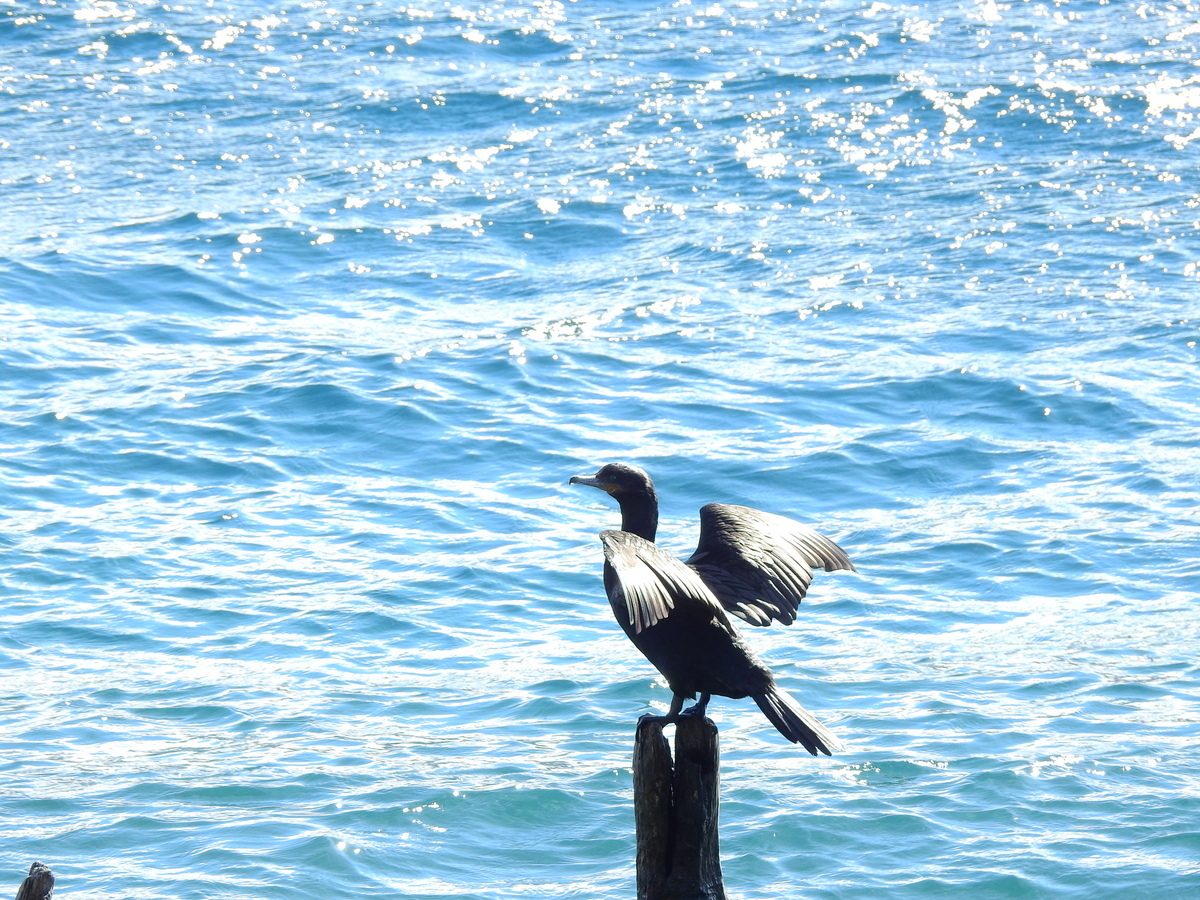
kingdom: Animalia
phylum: Chordata
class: Aves
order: Suliformes
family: Phalacrocoracidae
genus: Phalacrocorax
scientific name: Phalacrocorax brasilianus
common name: Neotropic cormorant
